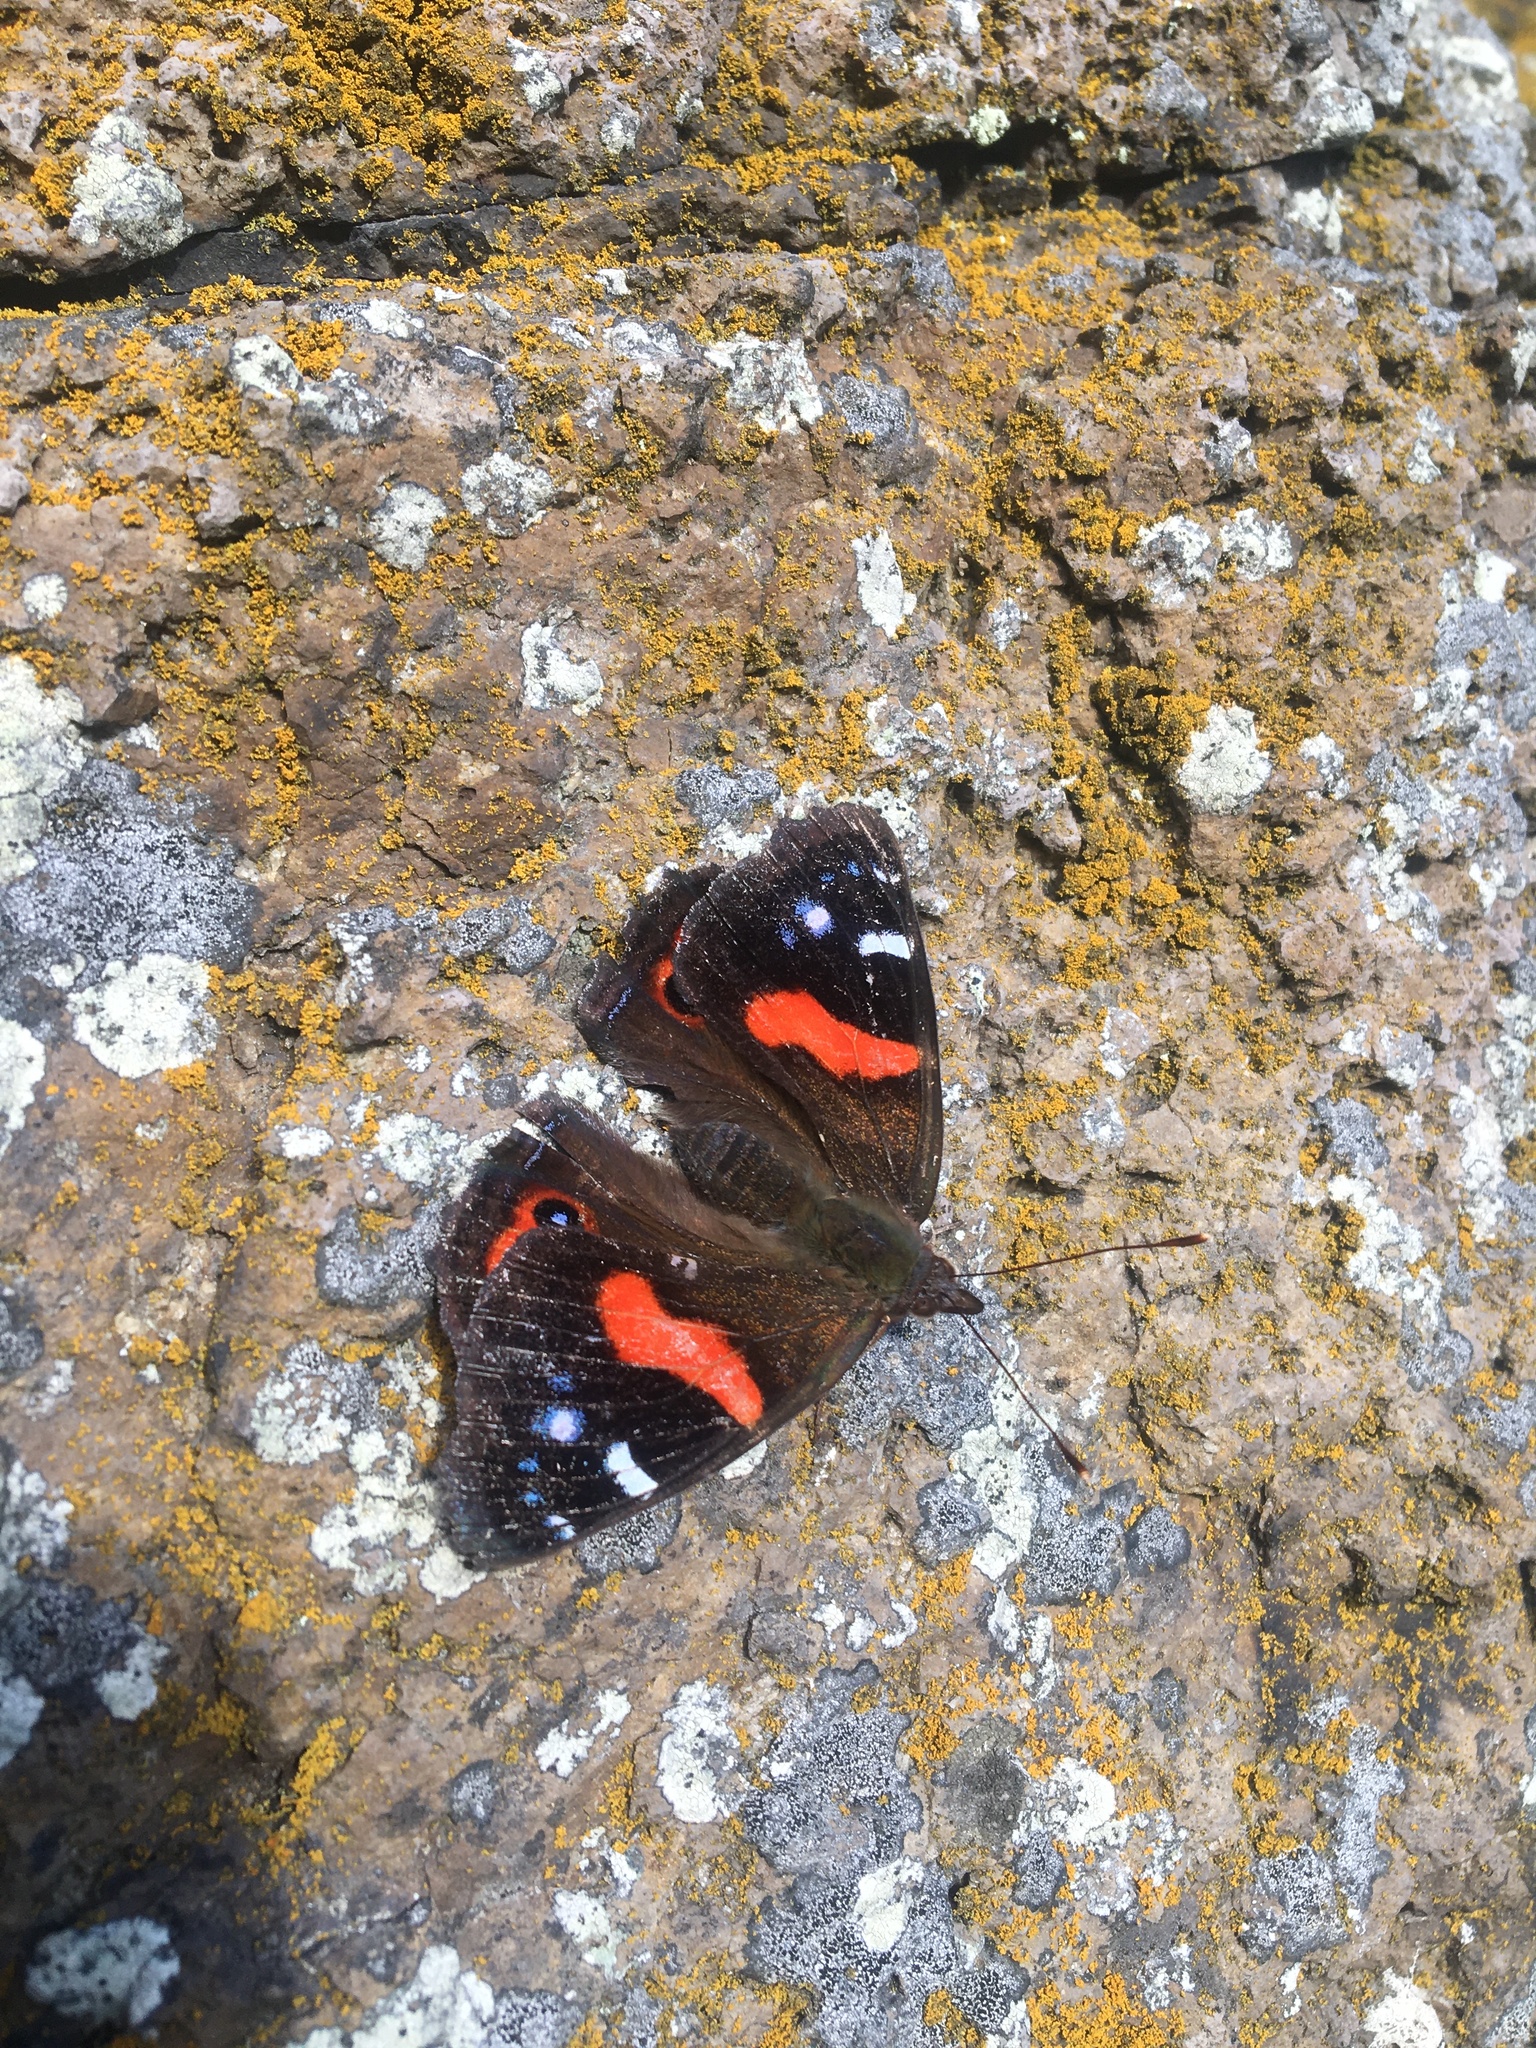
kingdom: Animalia
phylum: Arthropoda
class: Insecta
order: Lepidoptera
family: Nymphalidae
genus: Vanessa
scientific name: Vanessa gonerilla
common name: New zealand red admiral
